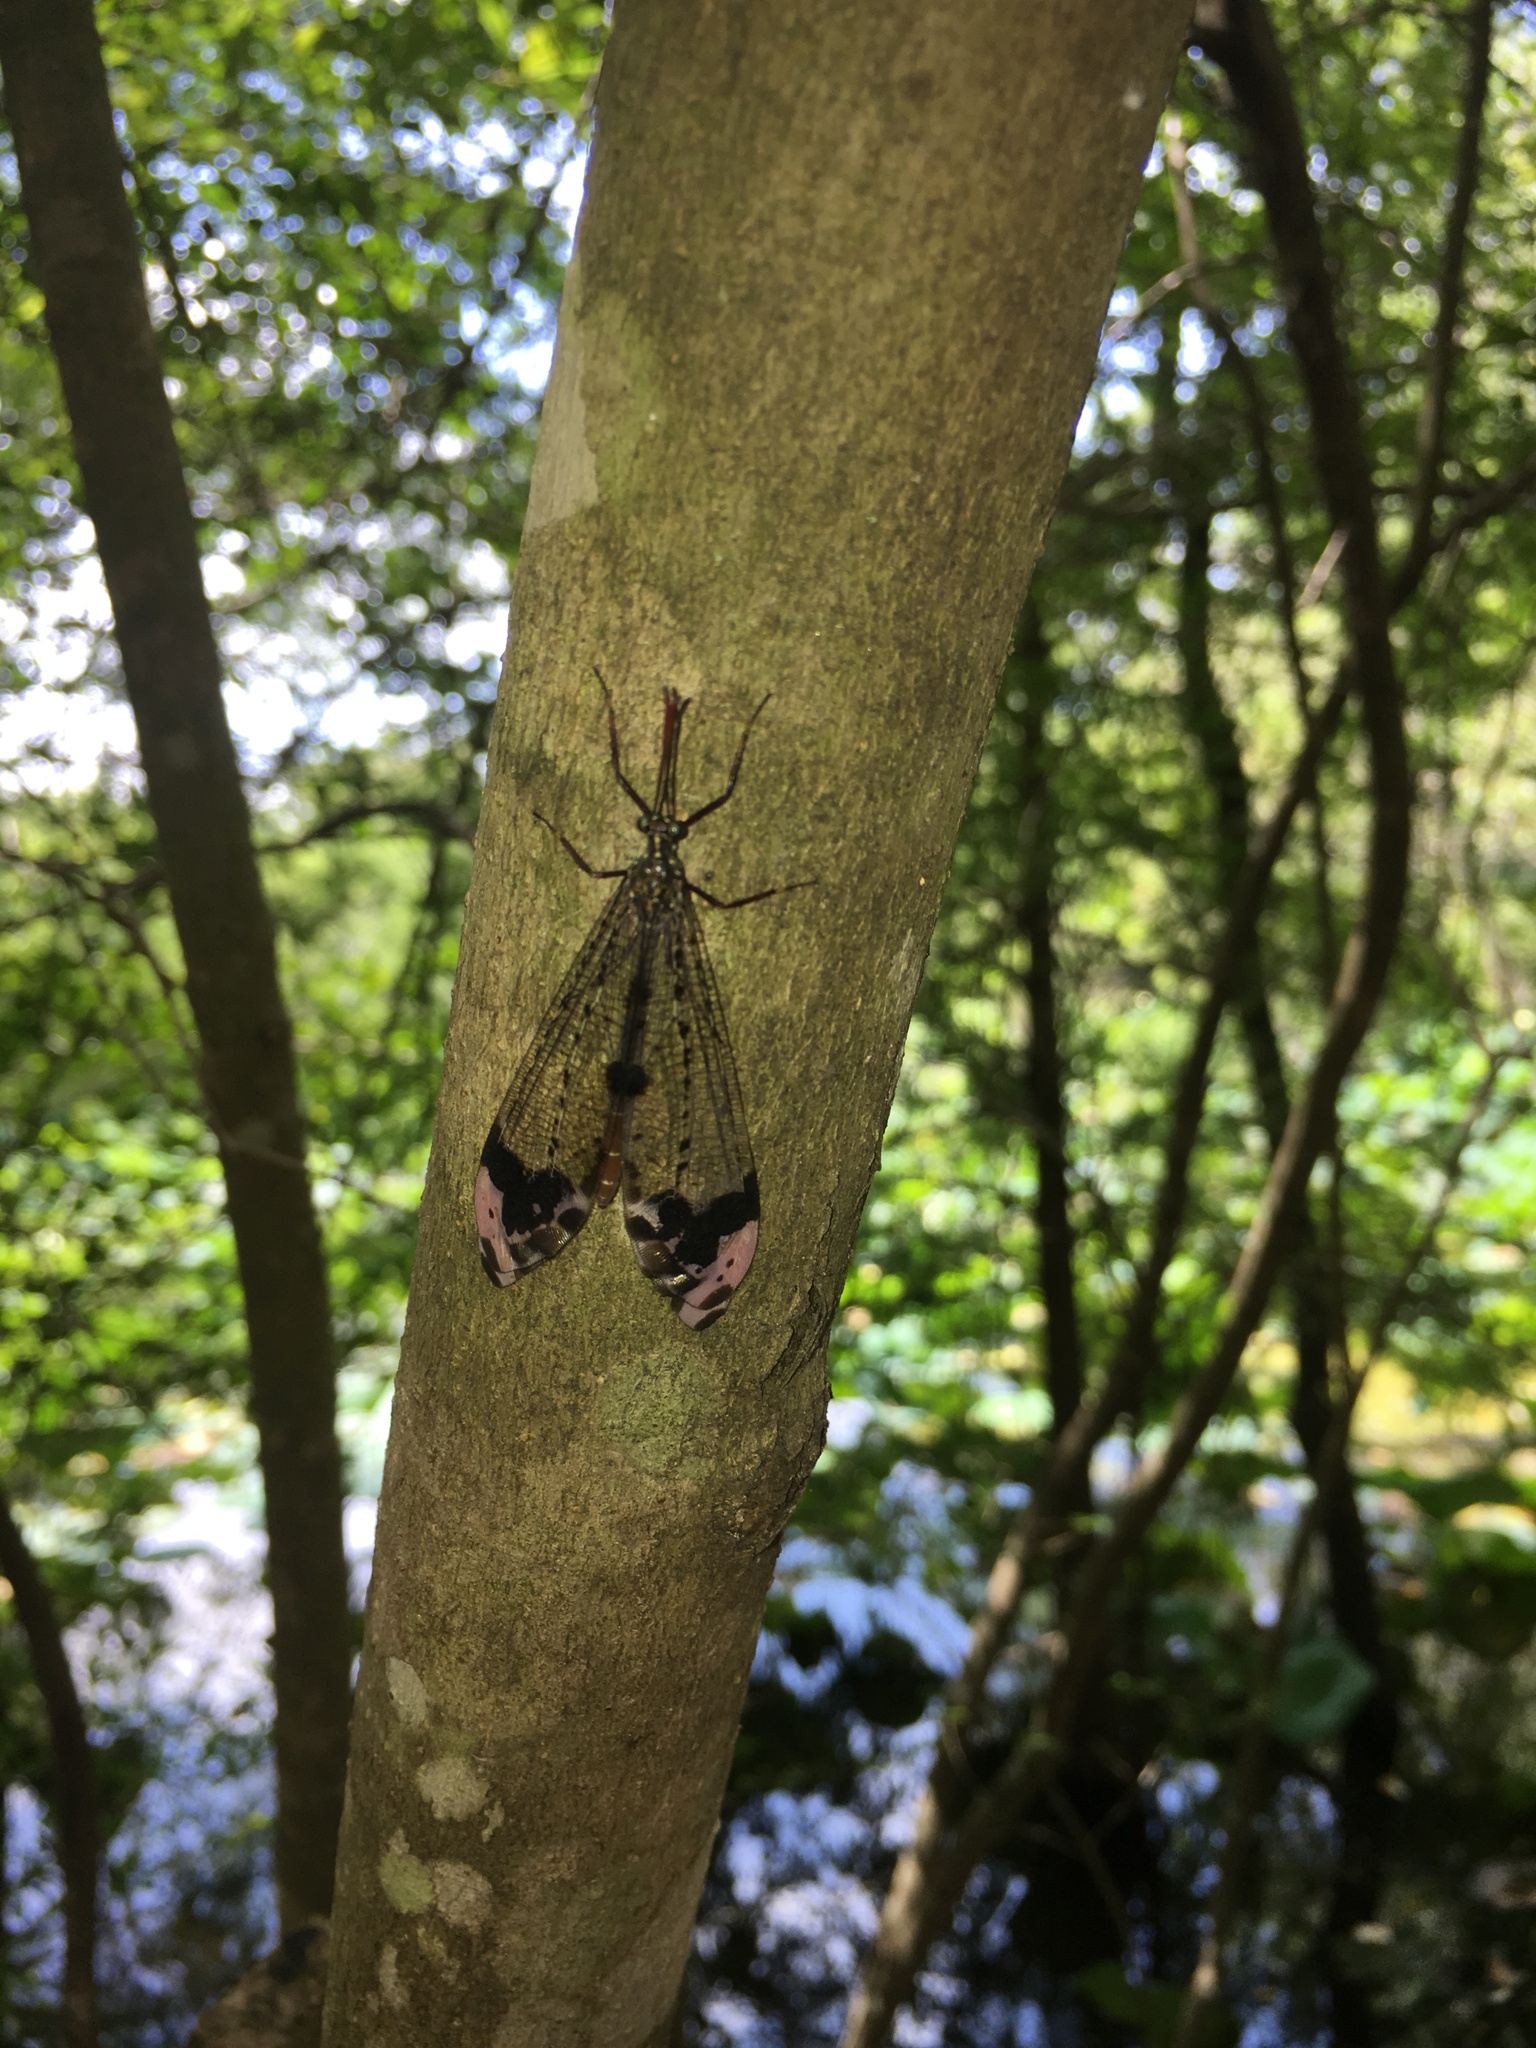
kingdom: Animalia
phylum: Arthropoda
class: Insecta
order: Neuroptera
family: Myrmeleontidae
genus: Glenurus
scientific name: Glenurus gratus
